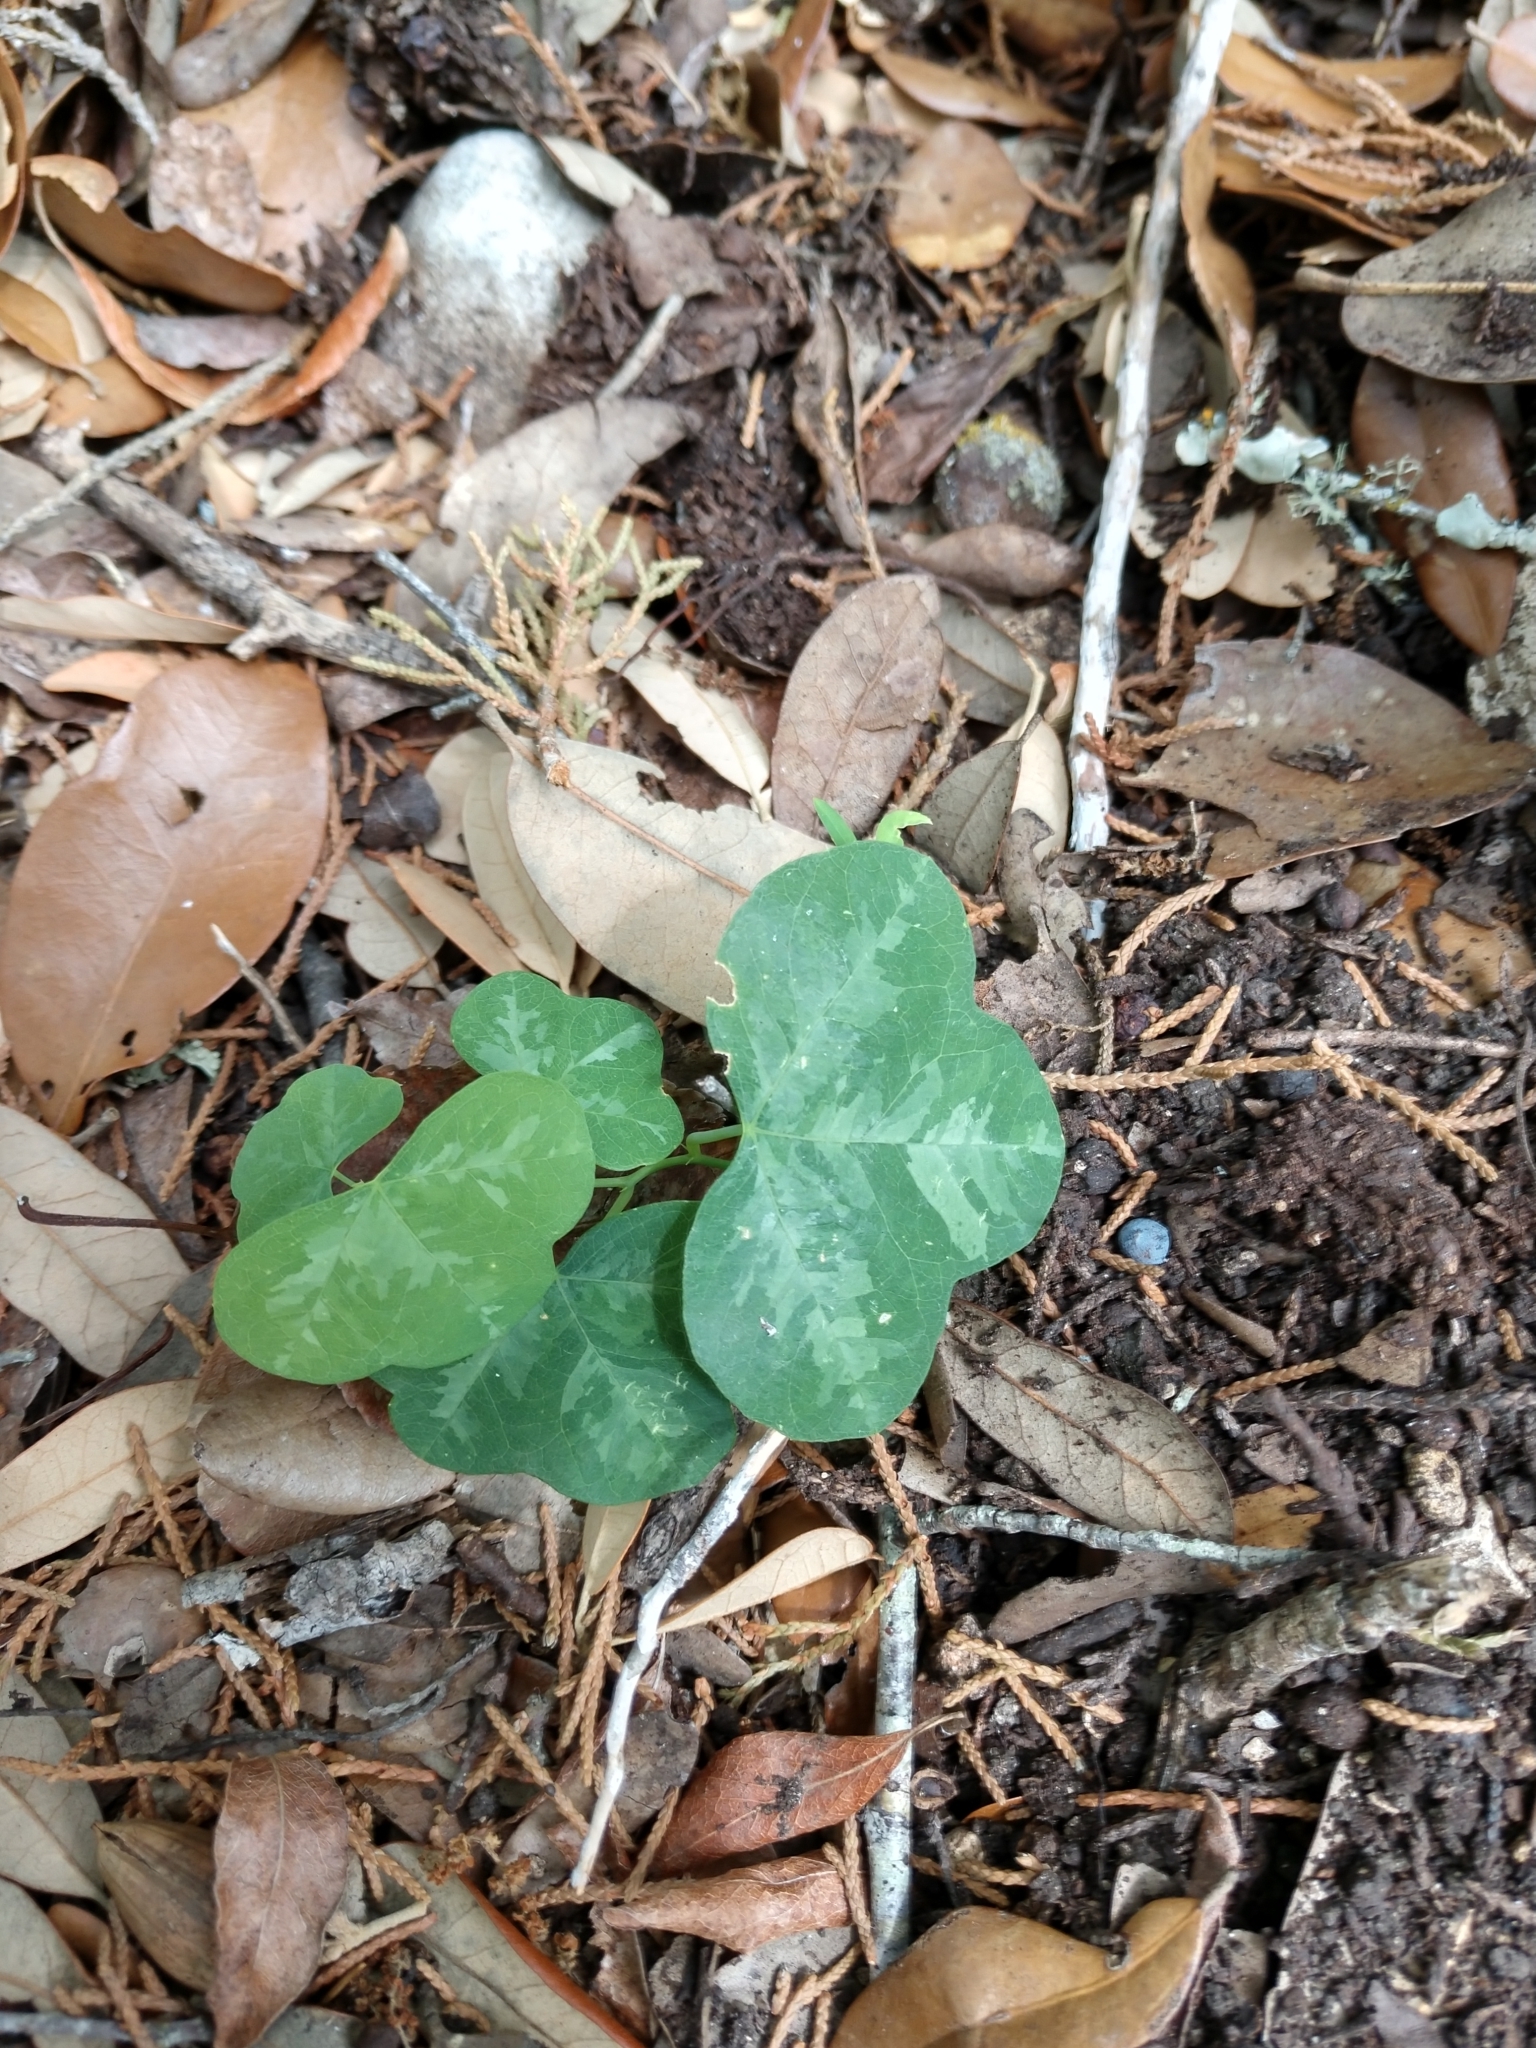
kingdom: Plantae
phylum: Tracheophyta
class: Magnoliopsida
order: Malpighiales
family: Passifloraceae
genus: Passiflora
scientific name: Passiflora lutea
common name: Yellow passionflower
